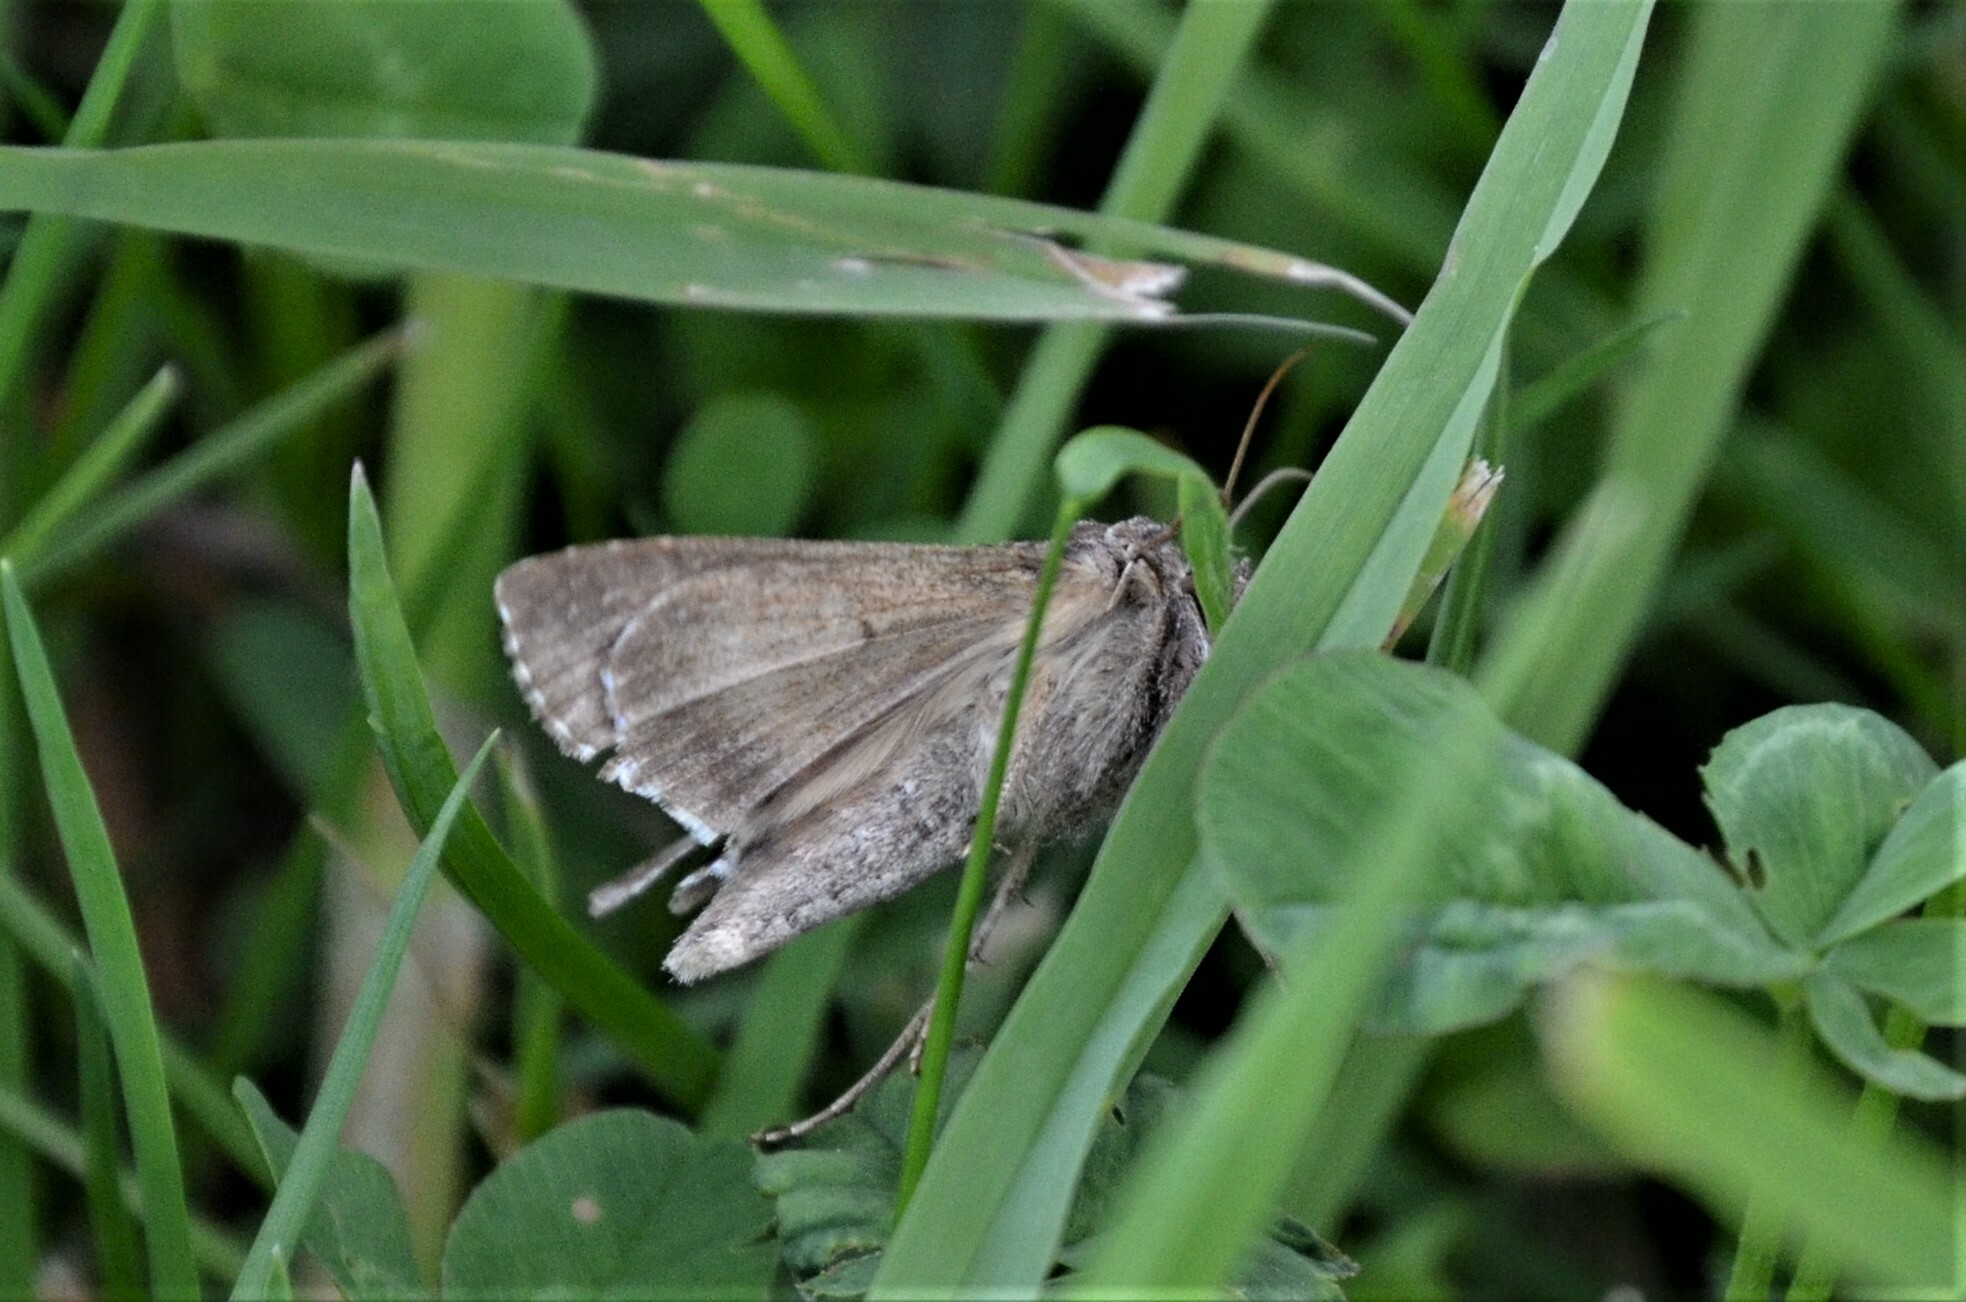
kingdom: Animalia
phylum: Arthropoda
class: Insecta
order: Lepidoptera
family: Noctuidae
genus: Autographa
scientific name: Autographa gamma
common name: Silver y
